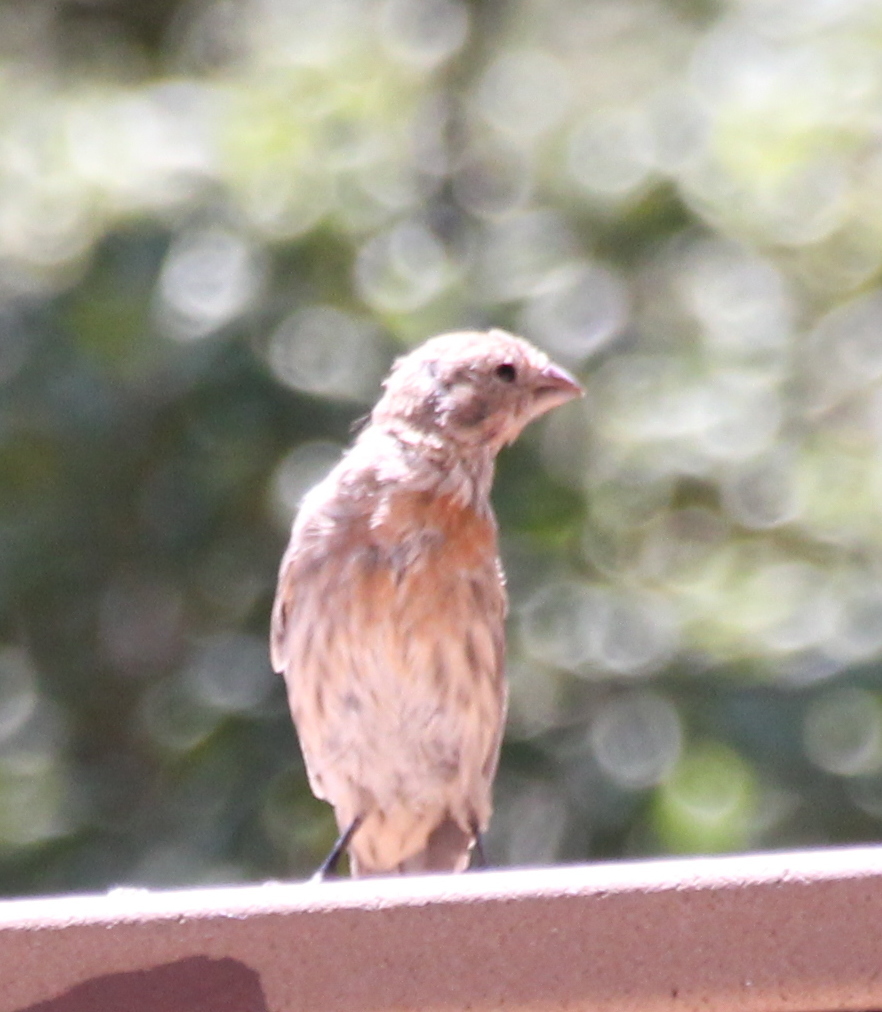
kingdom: Animalia
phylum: Chordata
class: Aves
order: Passeriformes
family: Fringillidae
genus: Haemorhous
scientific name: Haemorhous mexicanus
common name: House finch
